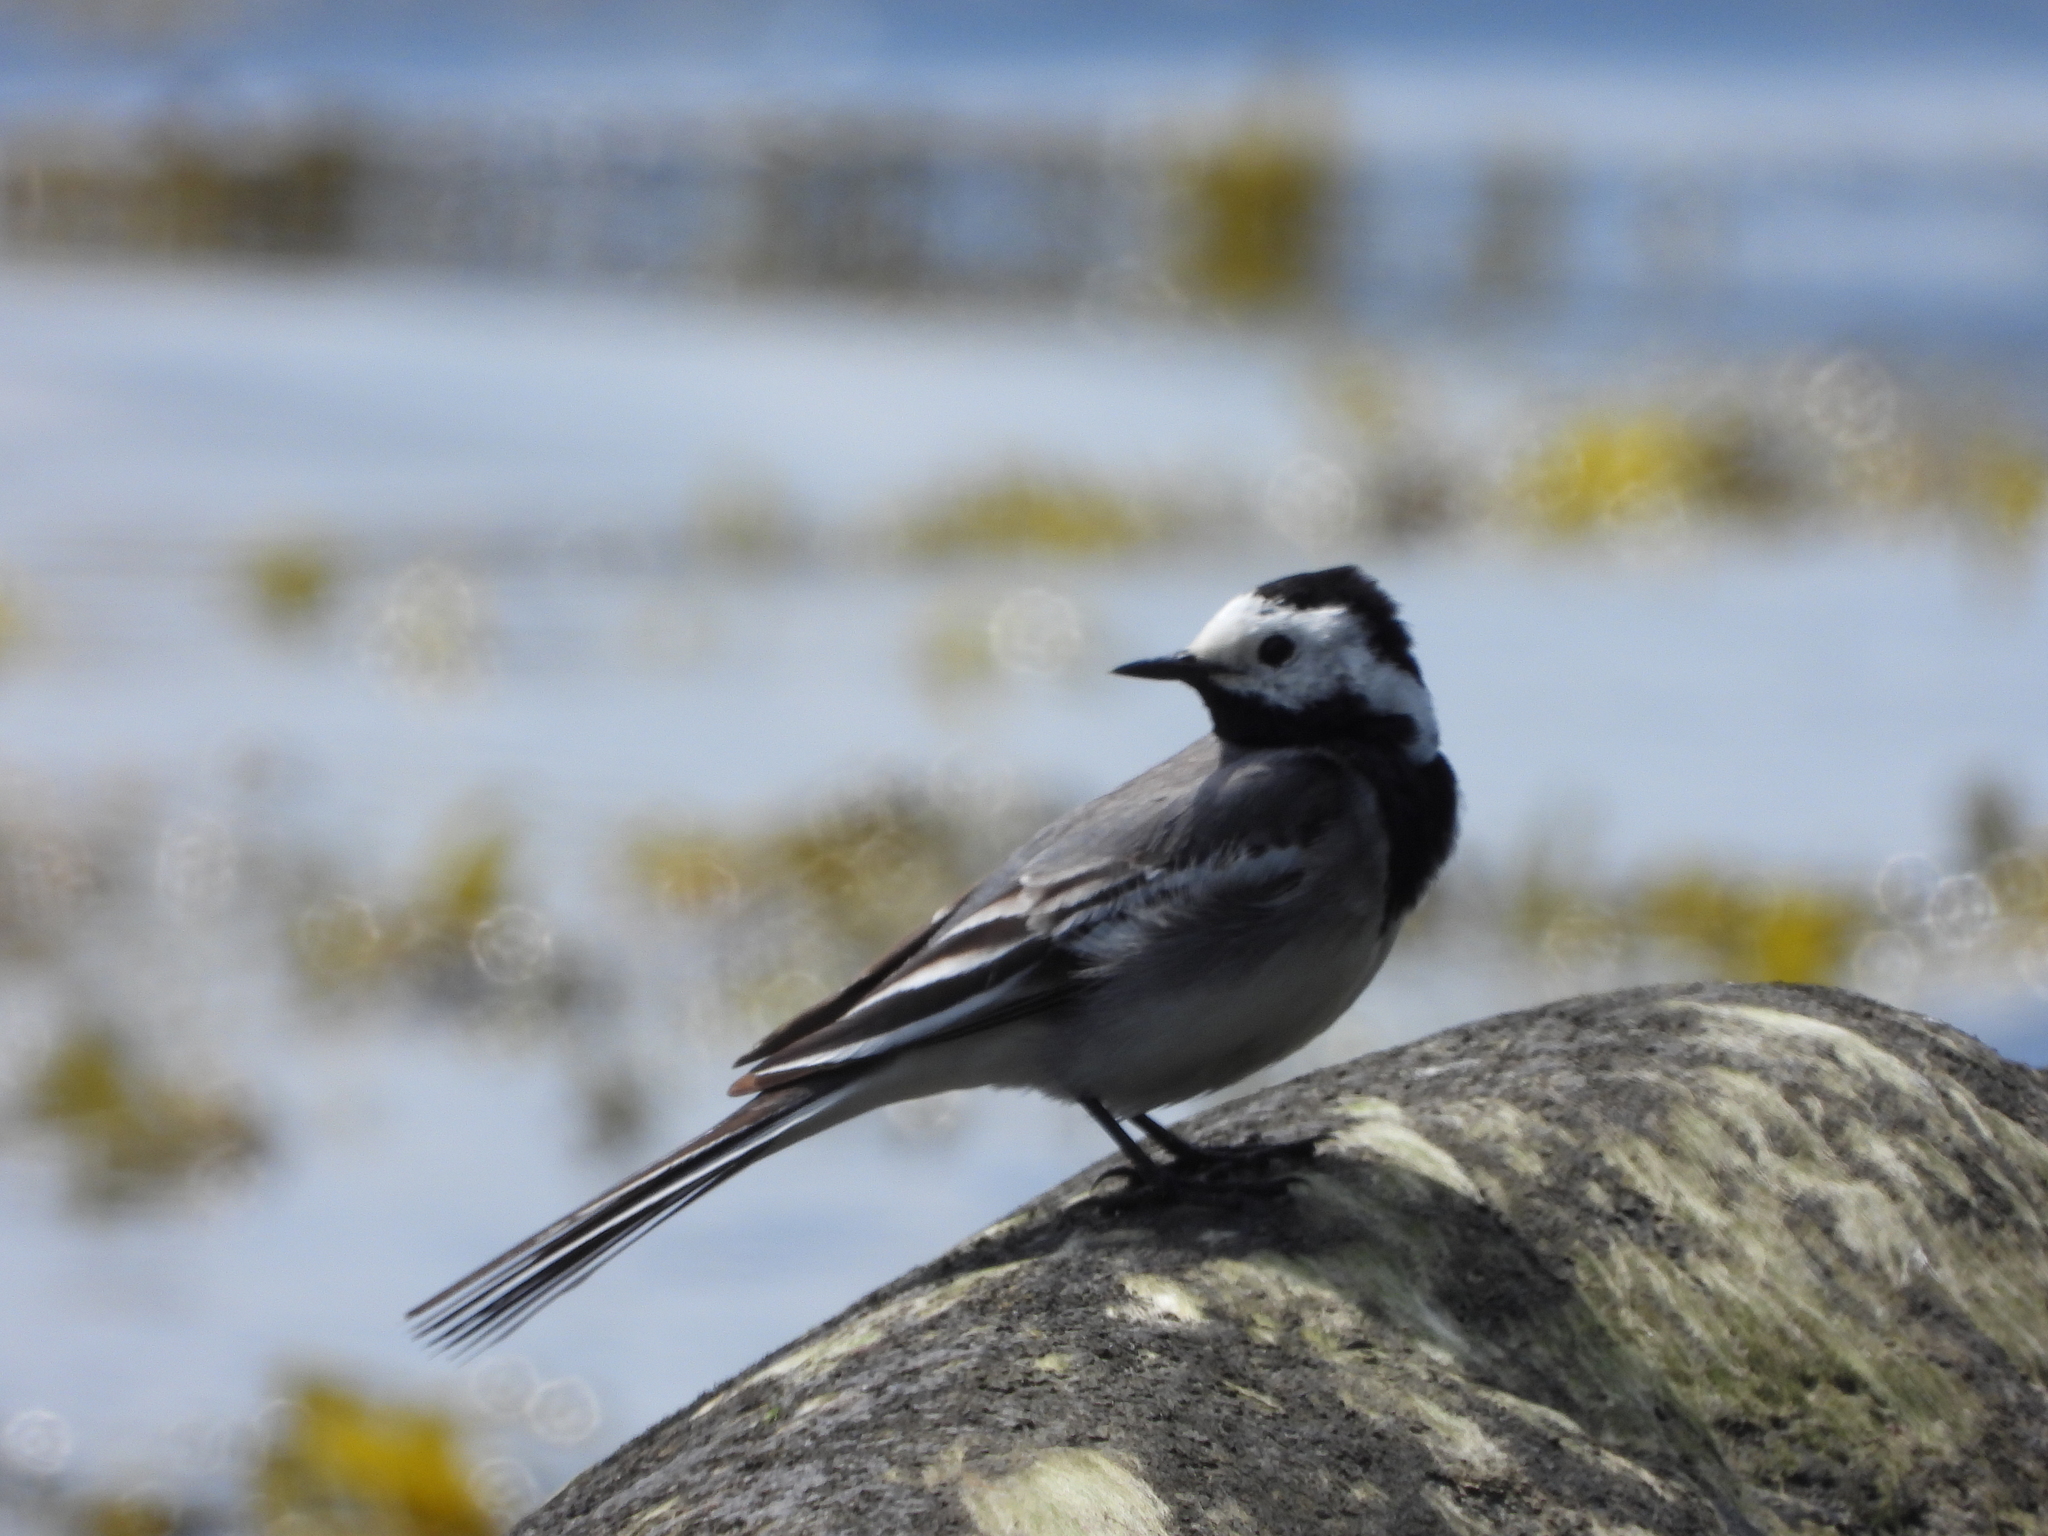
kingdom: Animalia
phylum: Chordata
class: Aves
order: Passeriformes
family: Motacillidae
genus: Motacilla
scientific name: Motacilla alba
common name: White wagtail
